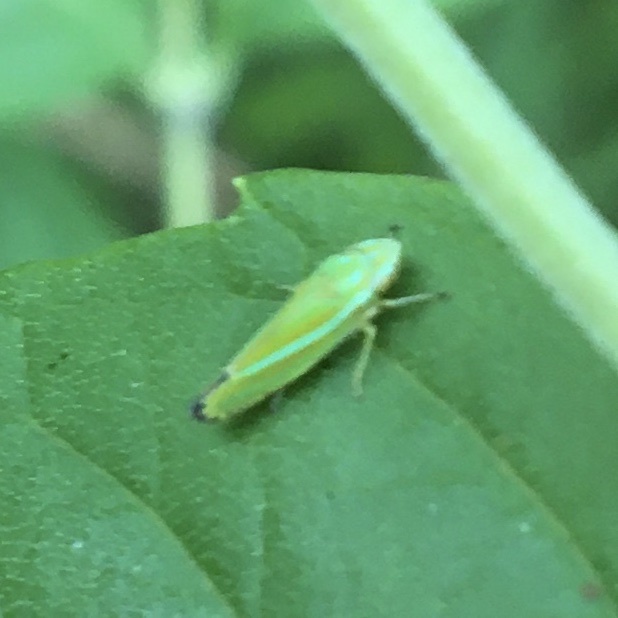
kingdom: Animalia
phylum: Arthropoda
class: Insecta
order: Hemiptera
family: Cicadellidae
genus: Graphocephala
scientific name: Graphocephala versuta
